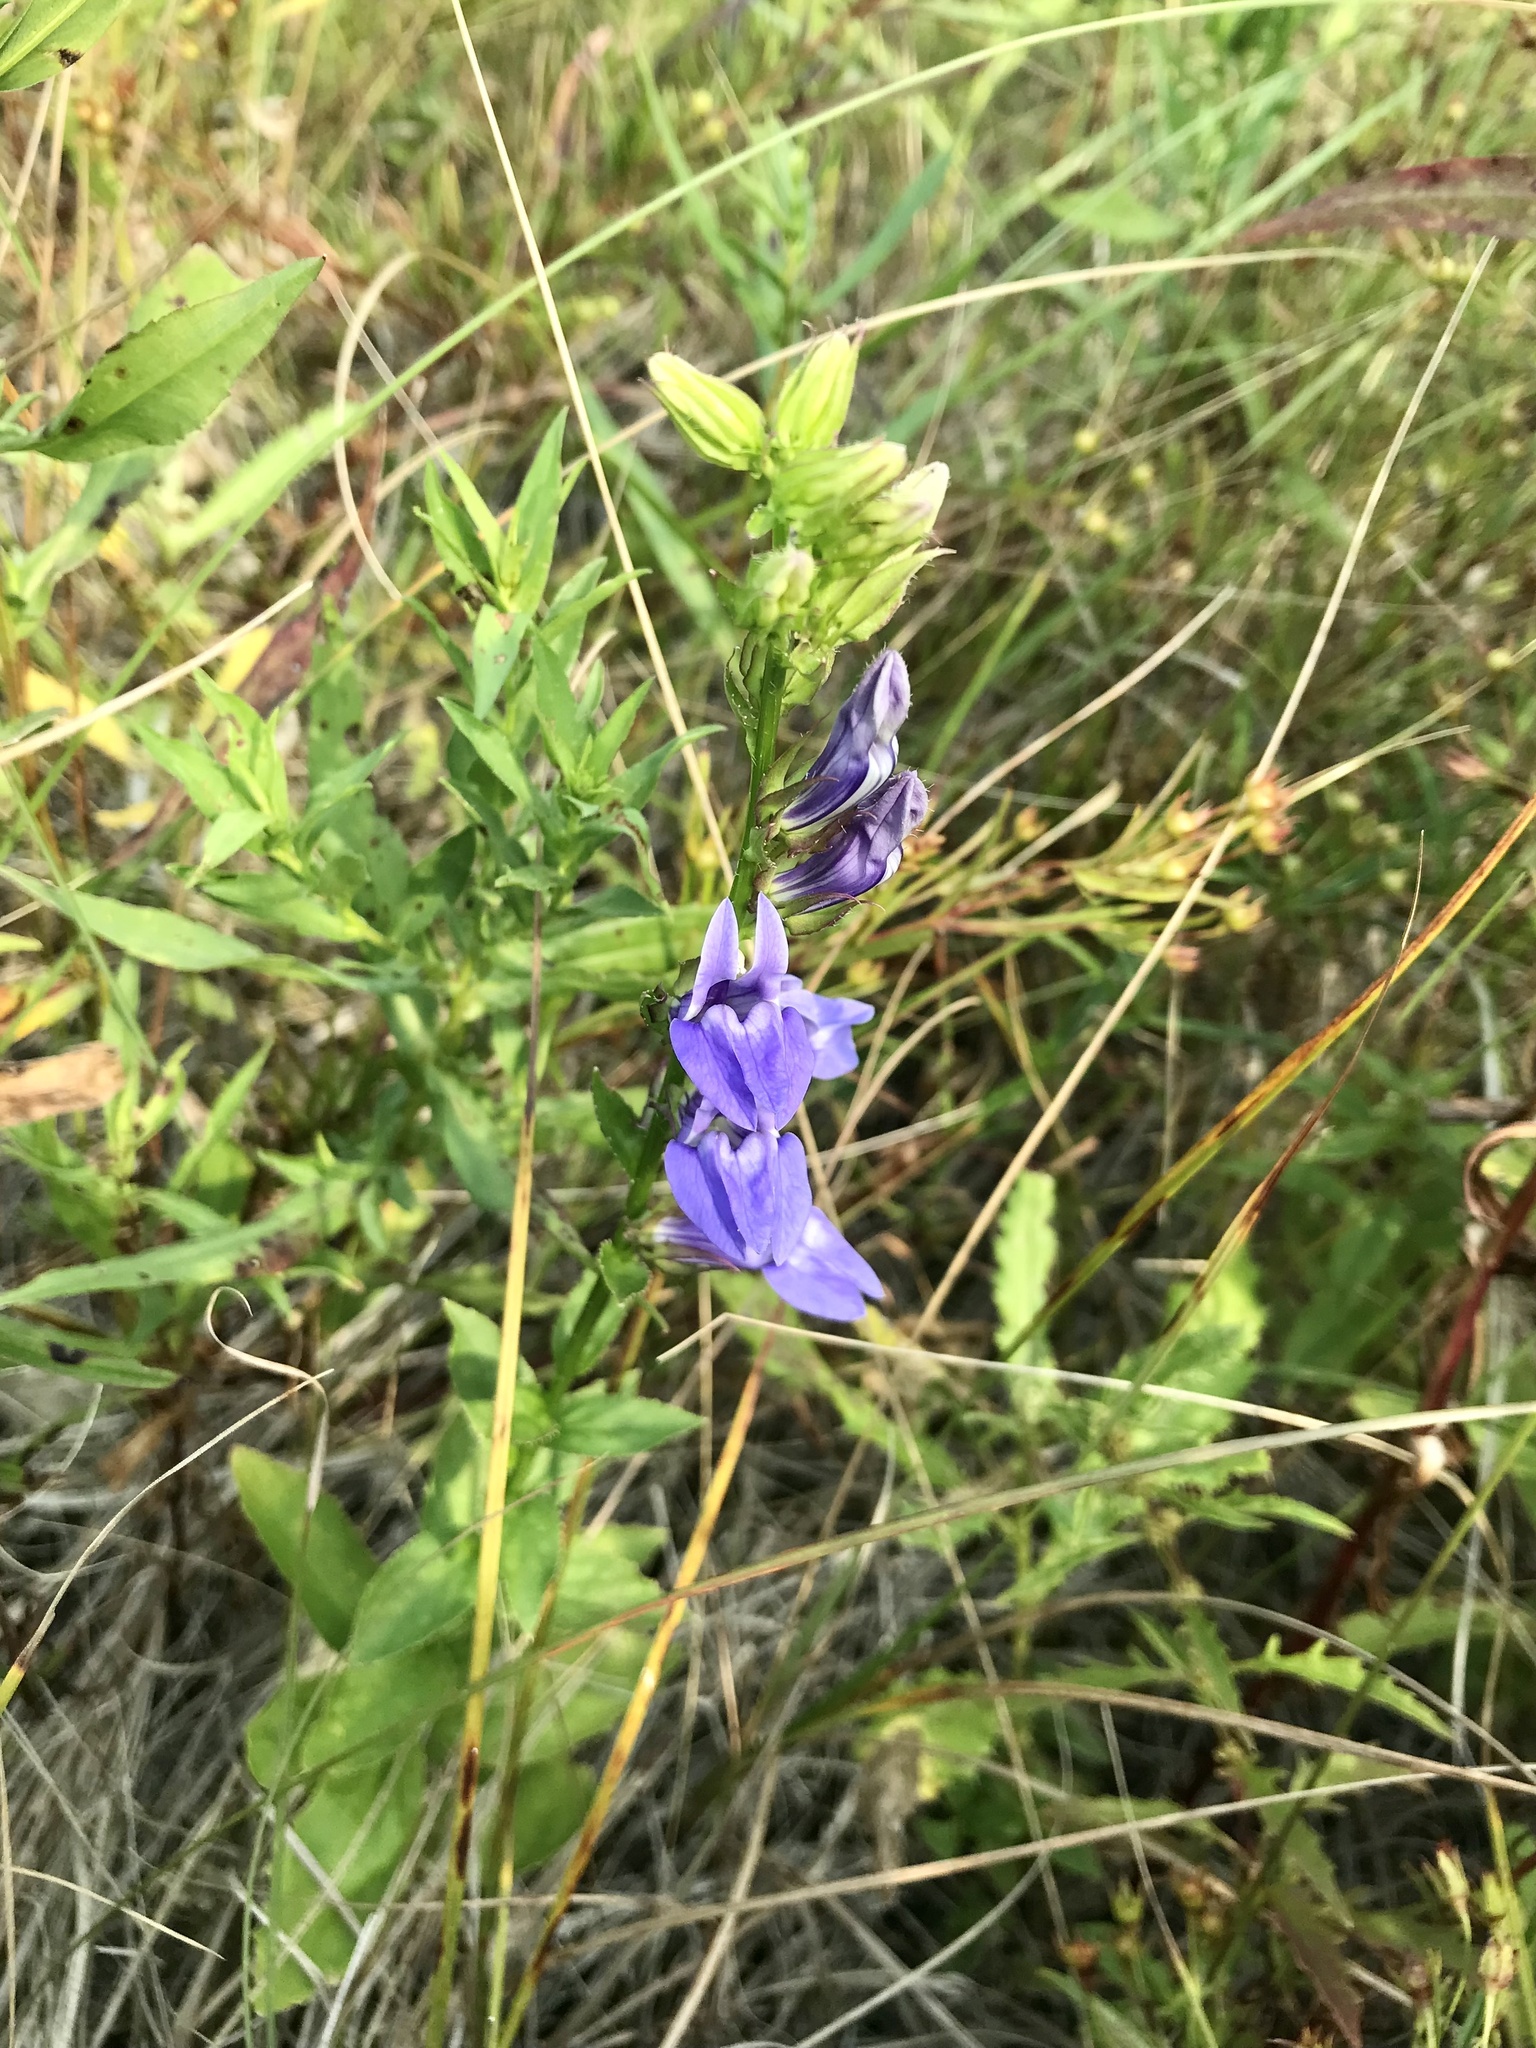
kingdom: Plantae
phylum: Tracheophyta
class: Magnoliopsida
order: Asterales
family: Campanulaceae
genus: Lobelia
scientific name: Lobelia siphilitica
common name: Great lobelia
